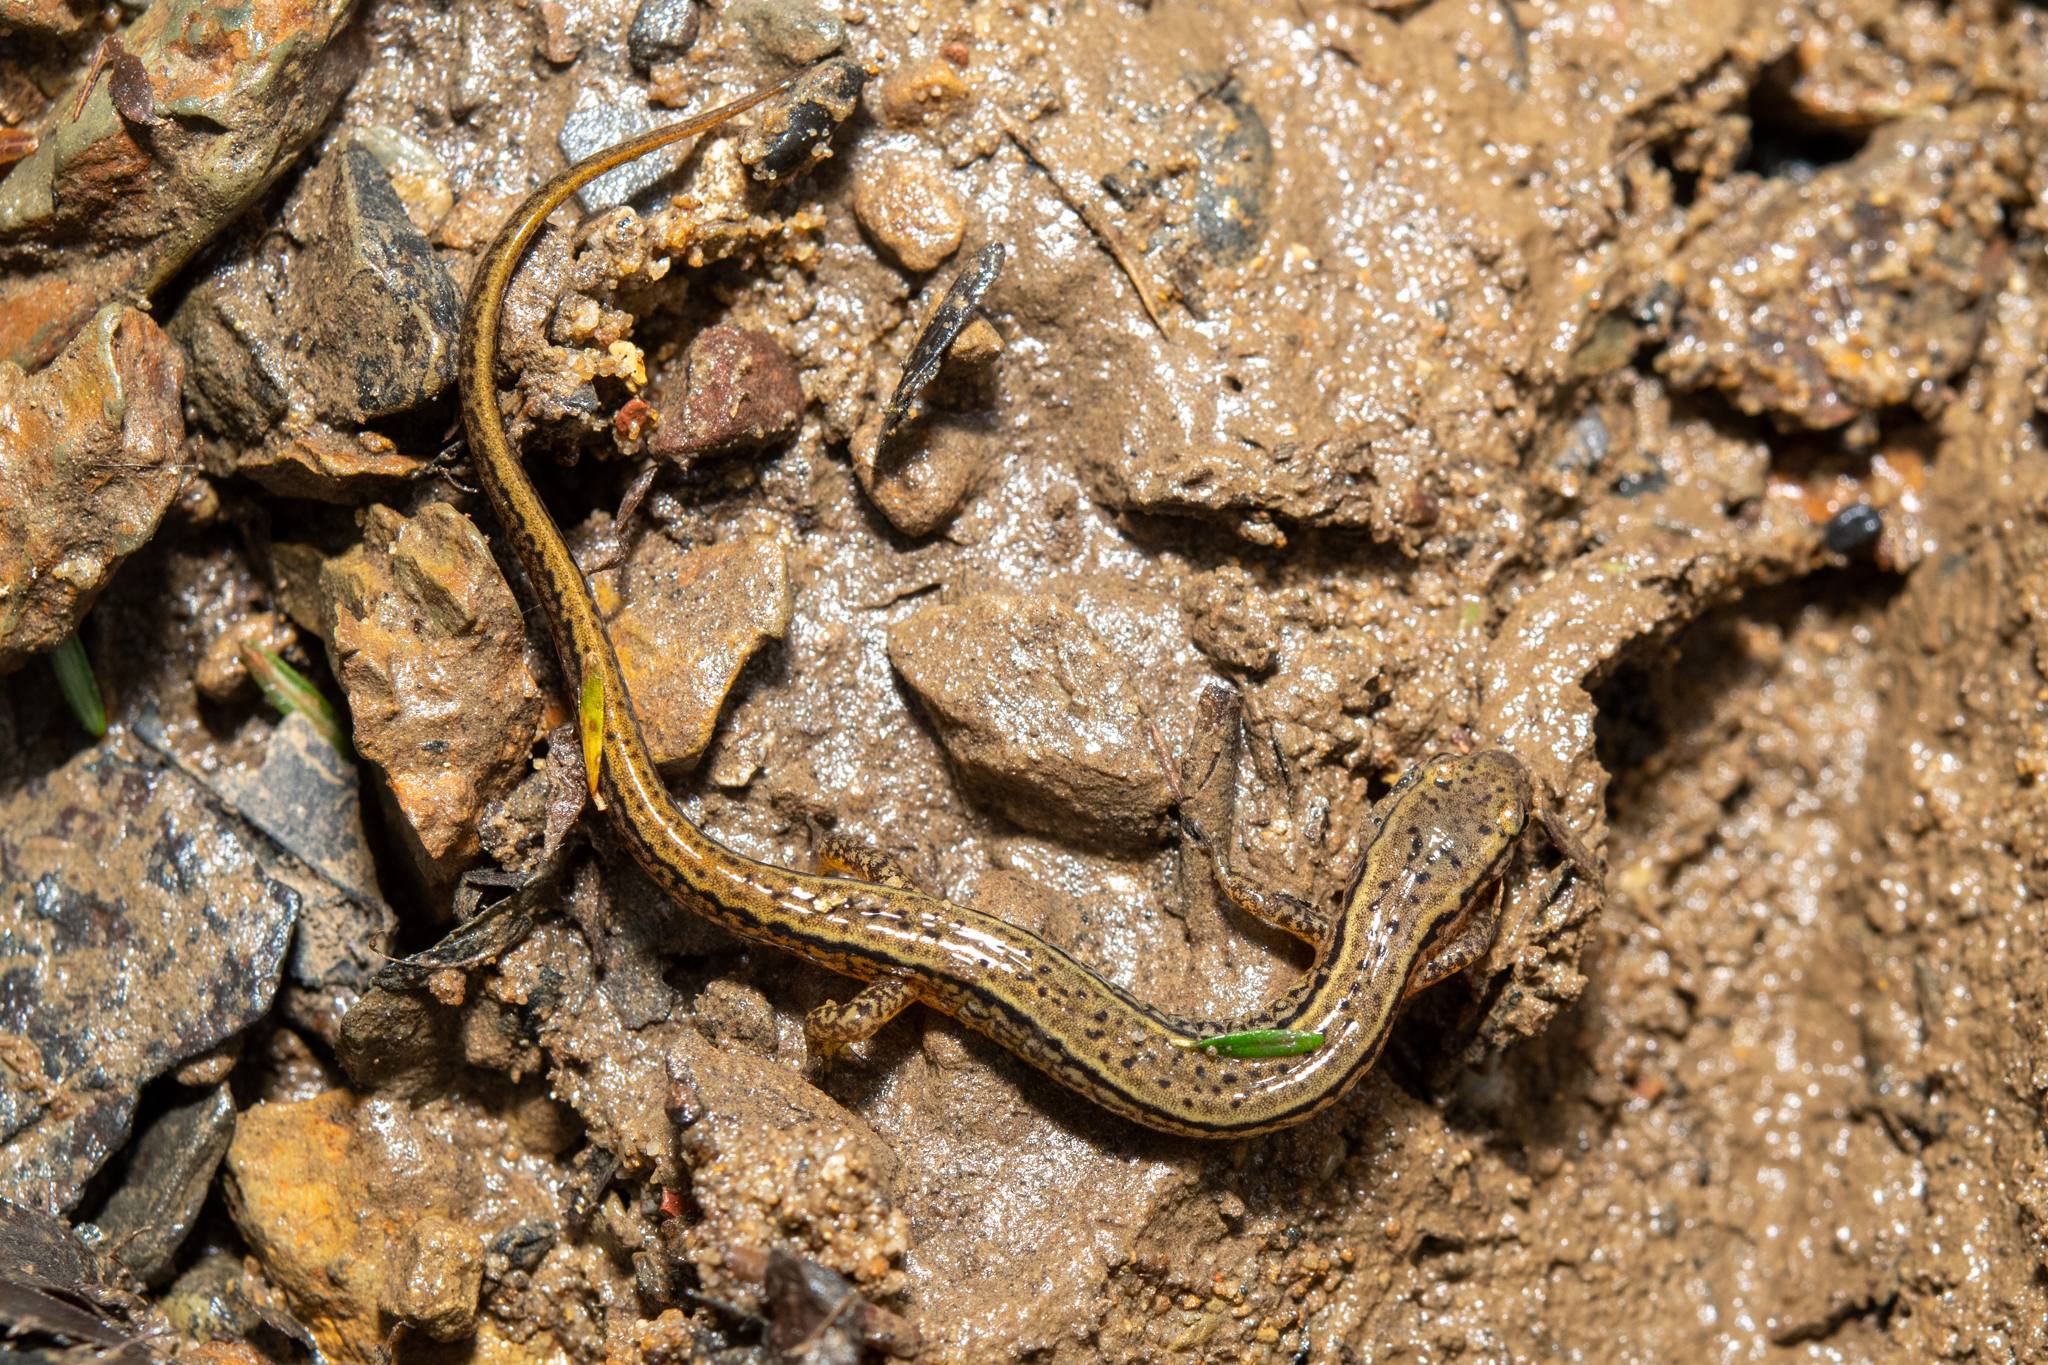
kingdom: Animalia
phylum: Chordata
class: Amphibia
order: Caudata
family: Plethodontidae
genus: Eurycea
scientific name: Eurycea bislineata
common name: Northern two-lined salamander
